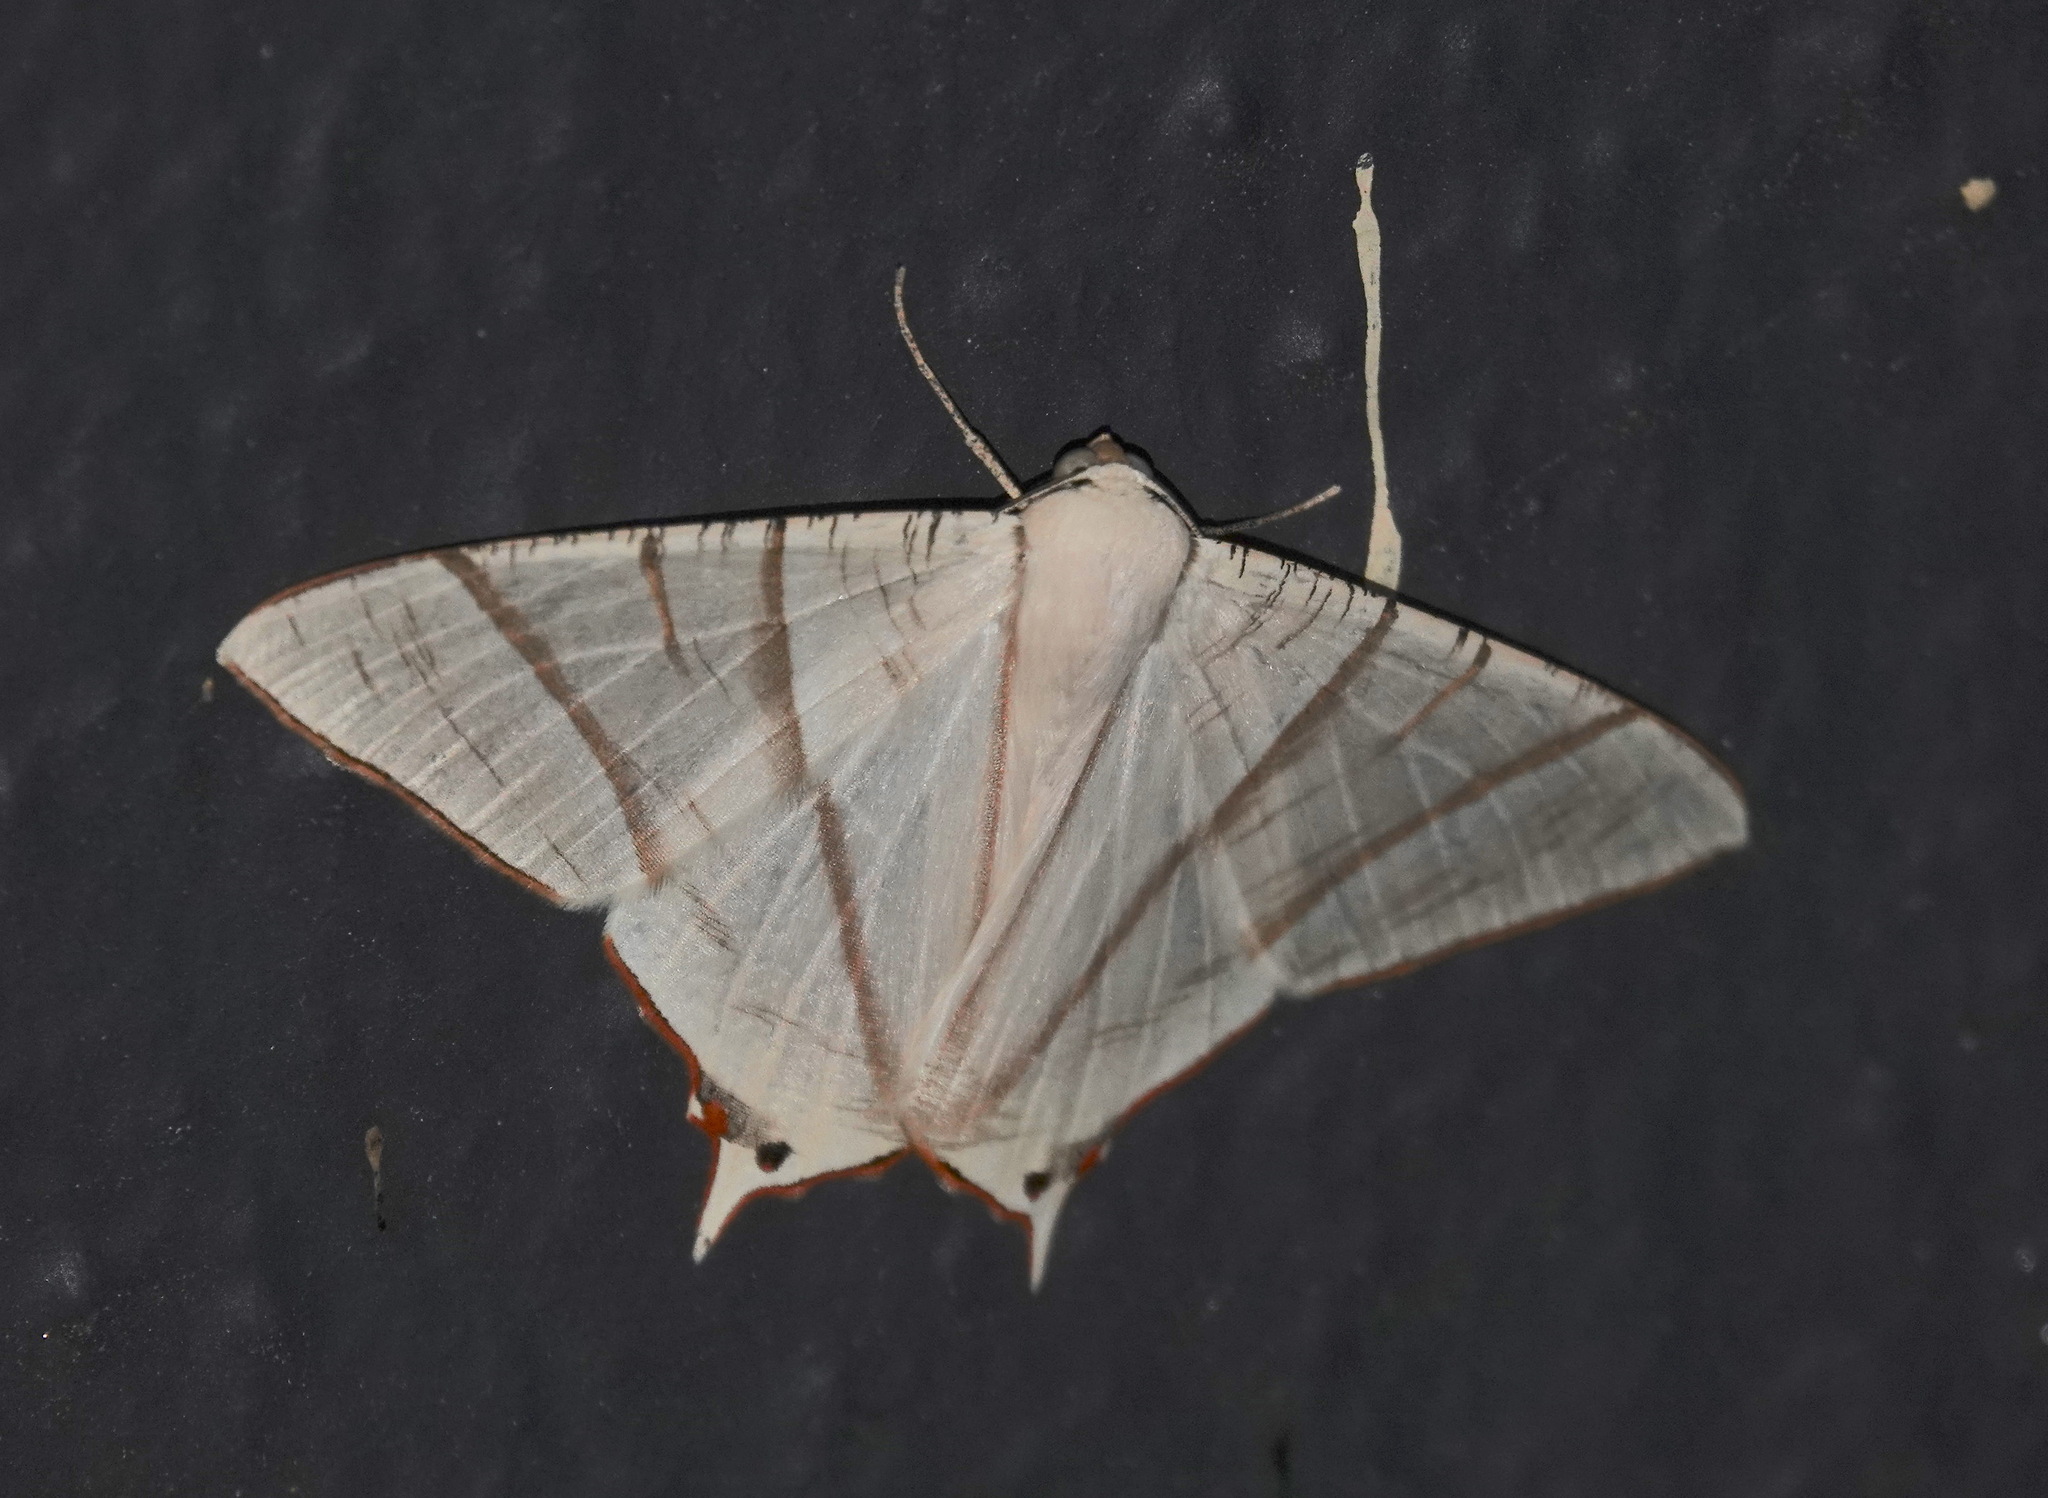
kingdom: Animalia
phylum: Arthropoda
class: Insecta
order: Lepidoptera
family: Geometridae
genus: Ourapteryx
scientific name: Ourapteryx picticaudata
